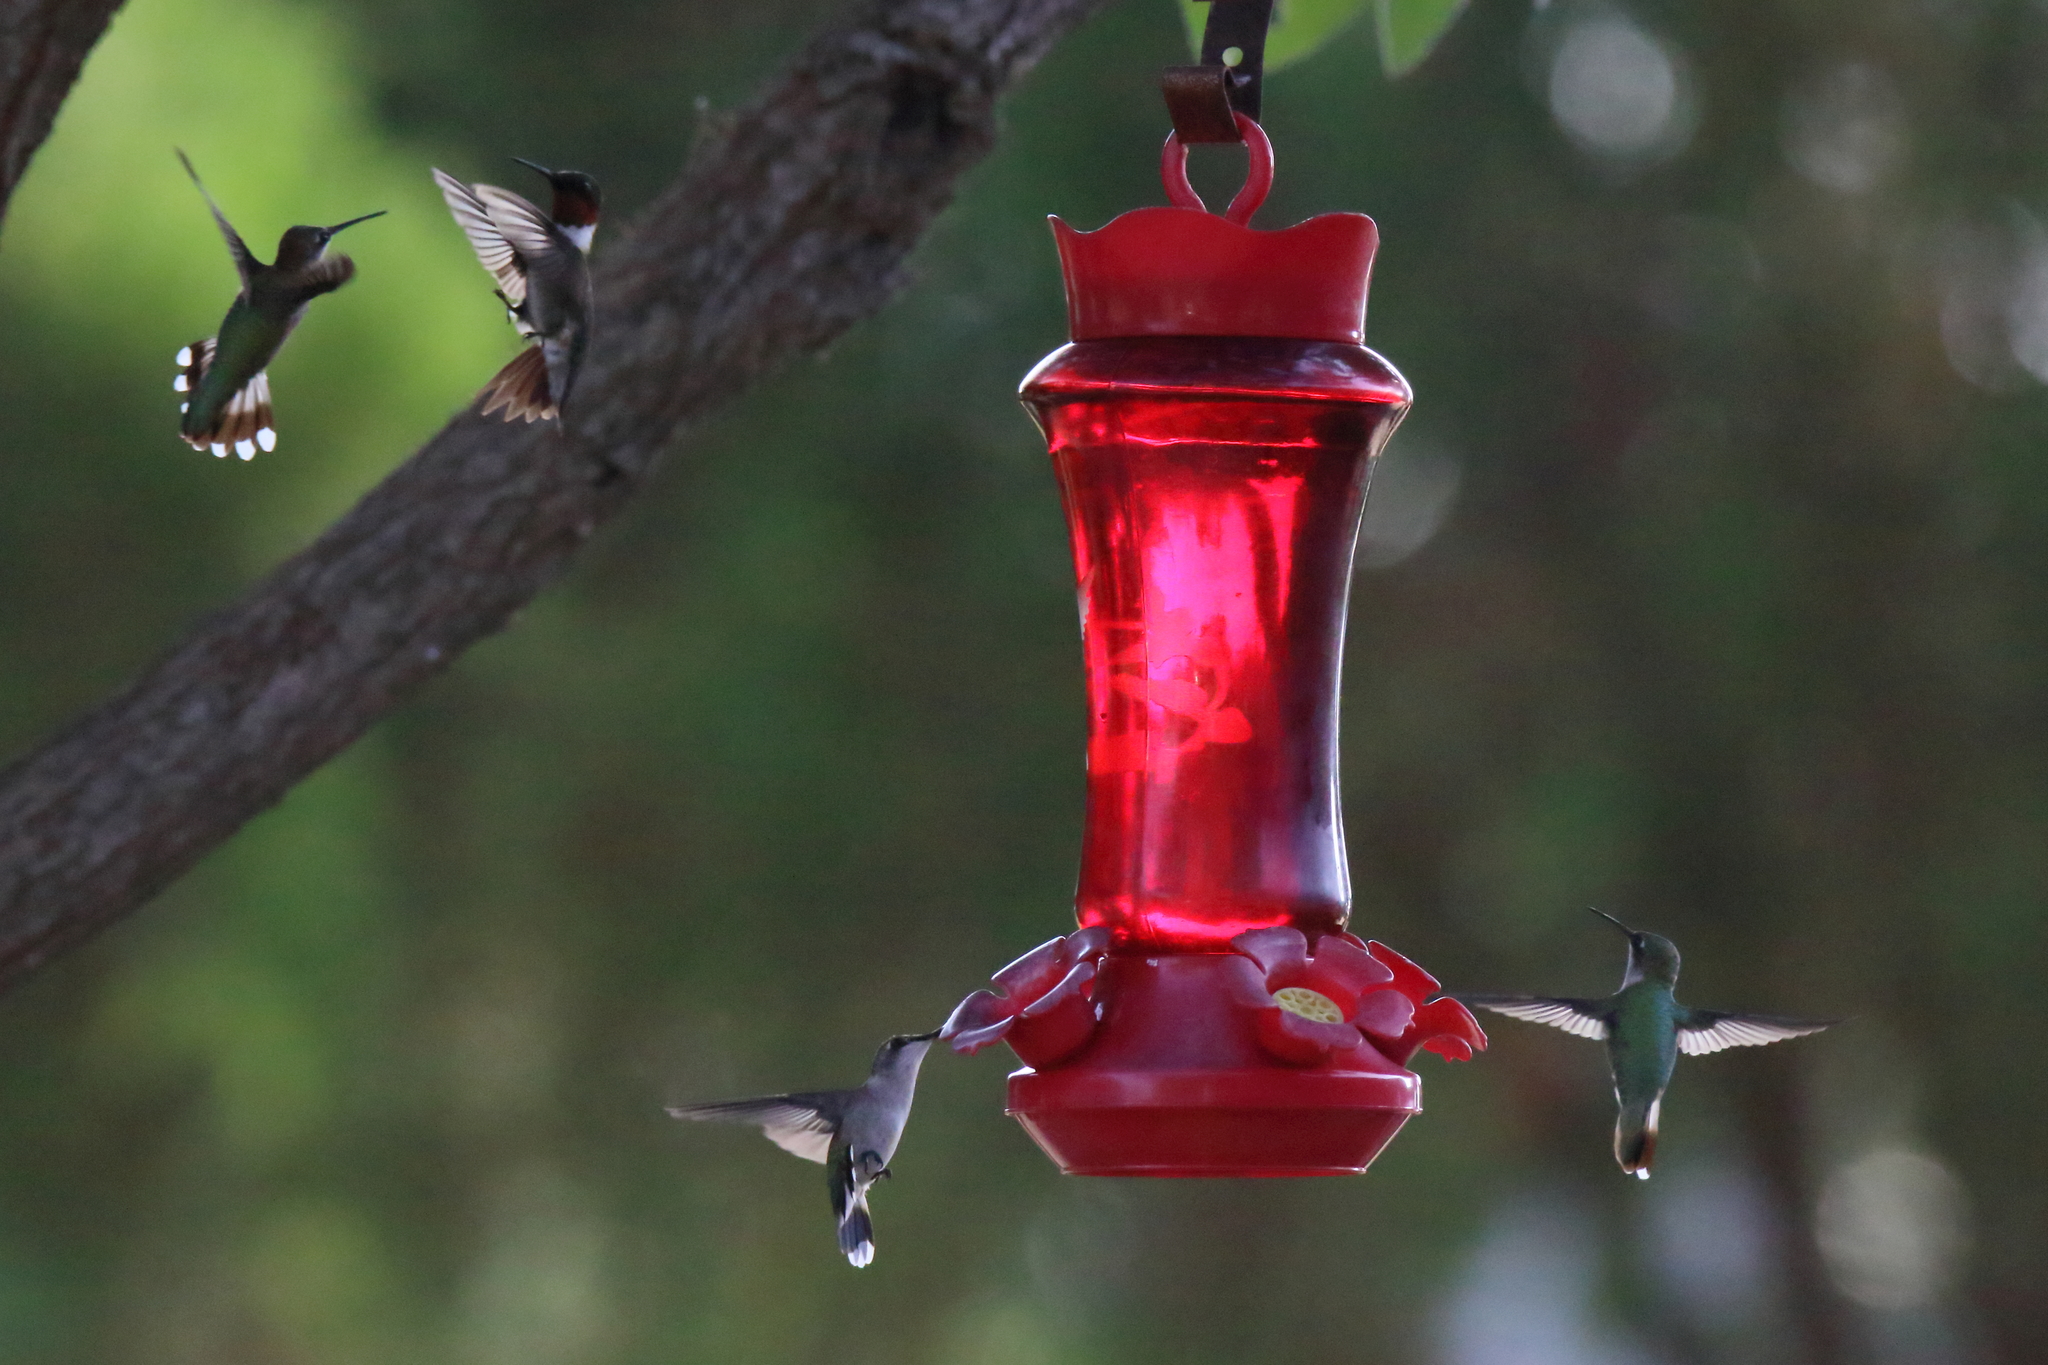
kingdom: Animalia
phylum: Chordata
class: Aves
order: Apodiformes
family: Trochilidae
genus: Archilochus
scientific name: Archilochus colubris
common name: Ruby-throated hummingbird
